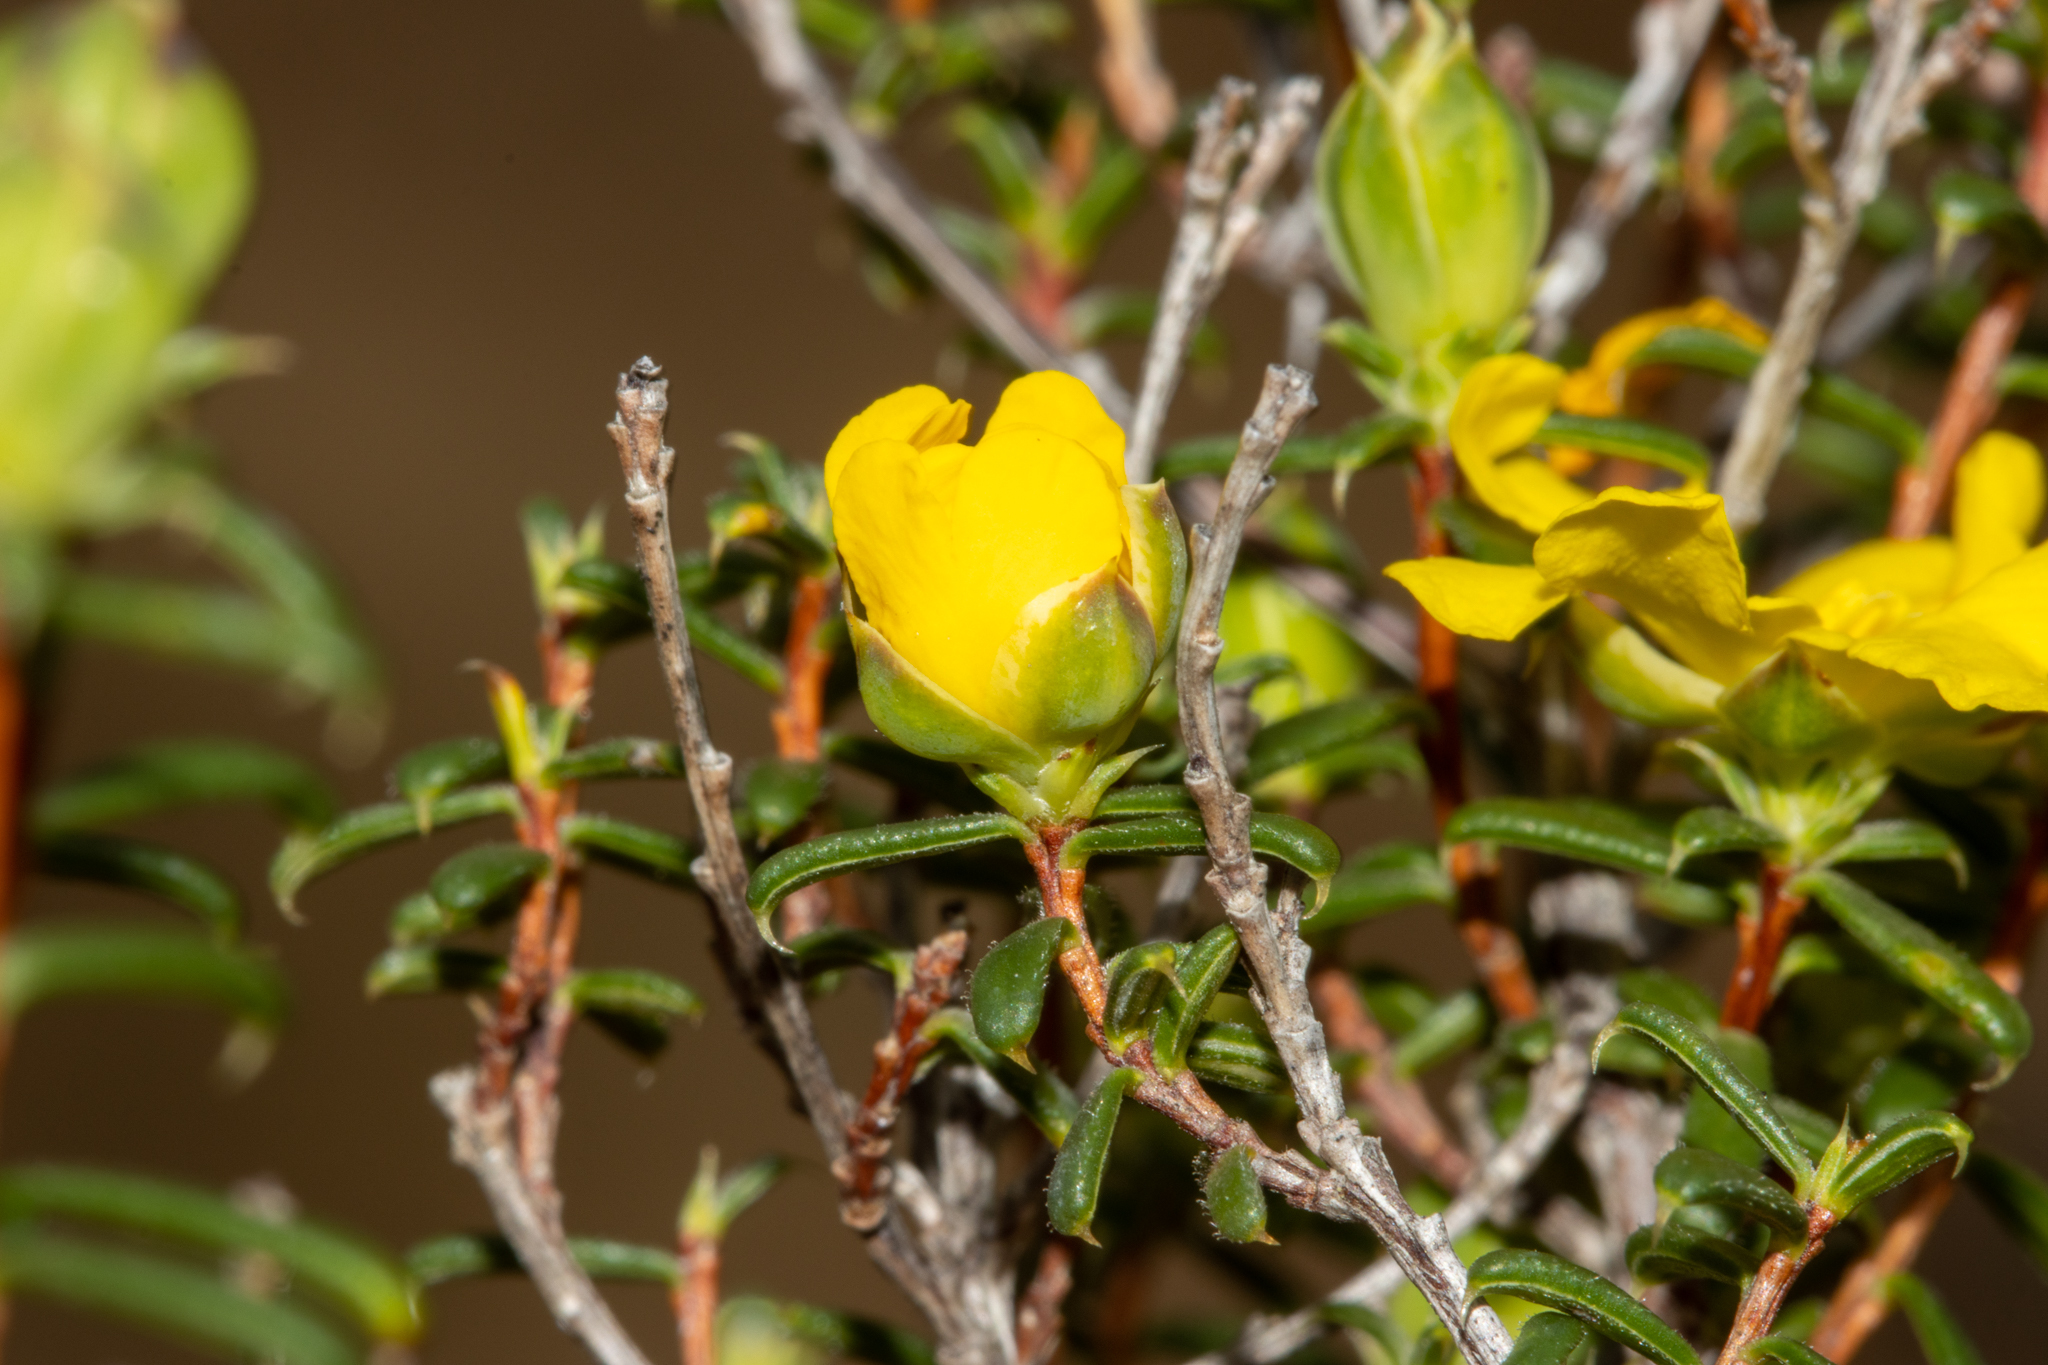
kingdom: Plantae
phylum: Tracheophyta
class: Magnoliopsida
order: Dilleniales
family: Dilleniaceae
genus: Hibbertia
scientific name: Hibbertia ancistrophylla
